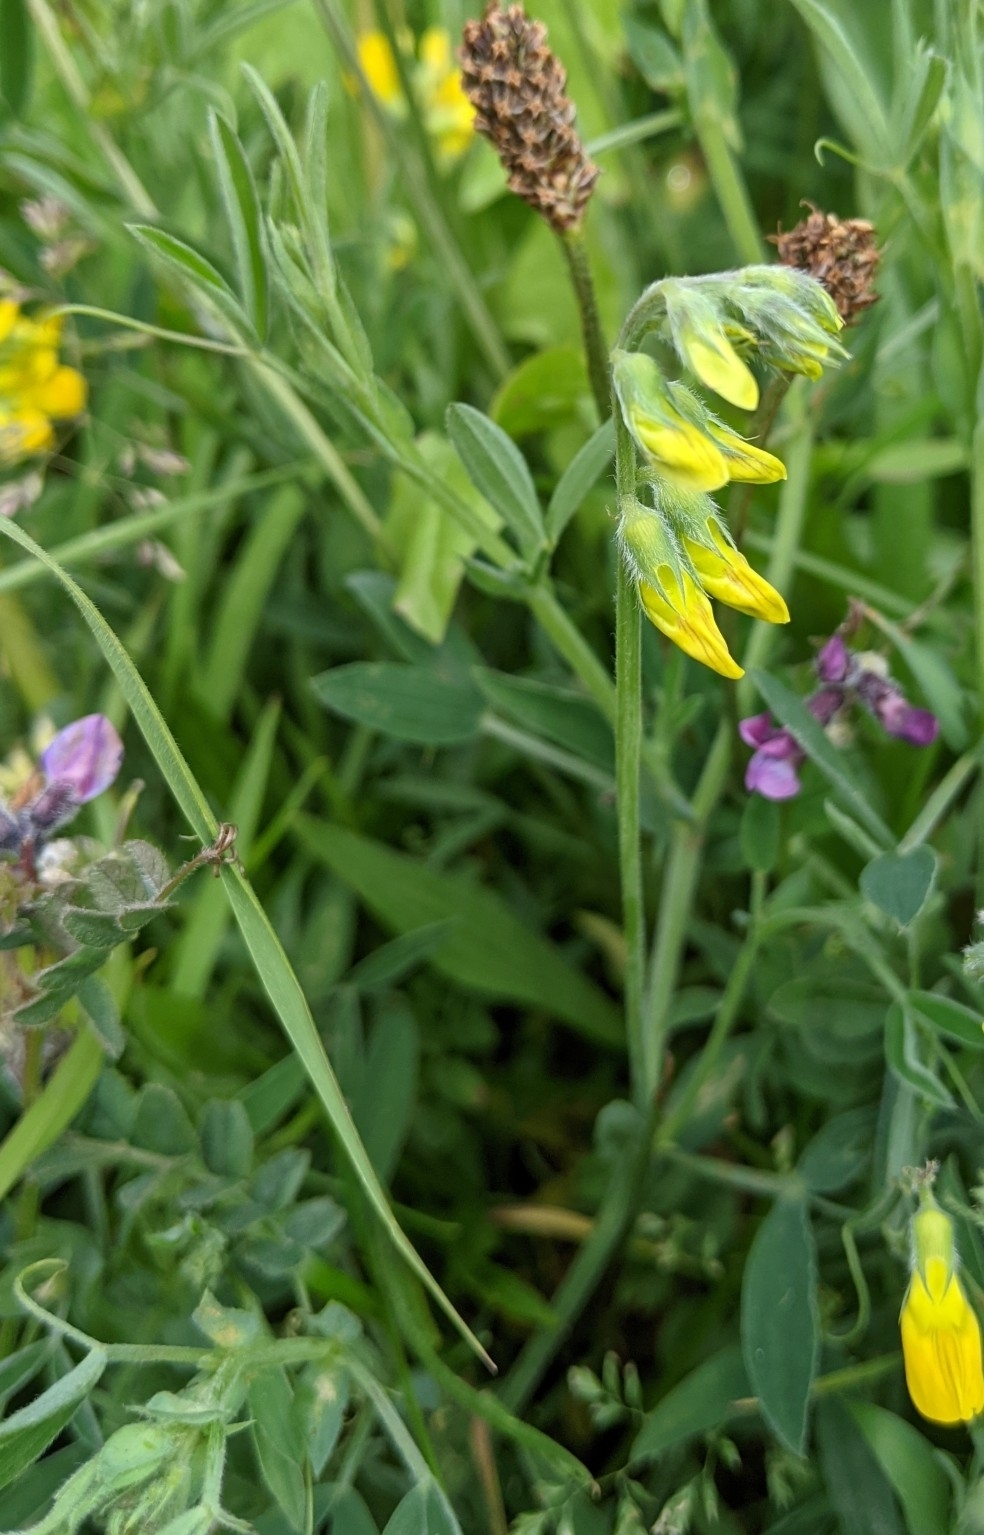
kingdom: Plantae
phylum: Tracheophyta
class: Magnoliopsida
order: Fabales
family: Fabaceae
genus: Lathyrus
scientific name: Lathyrus pratensis
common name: Meadow vetchling
